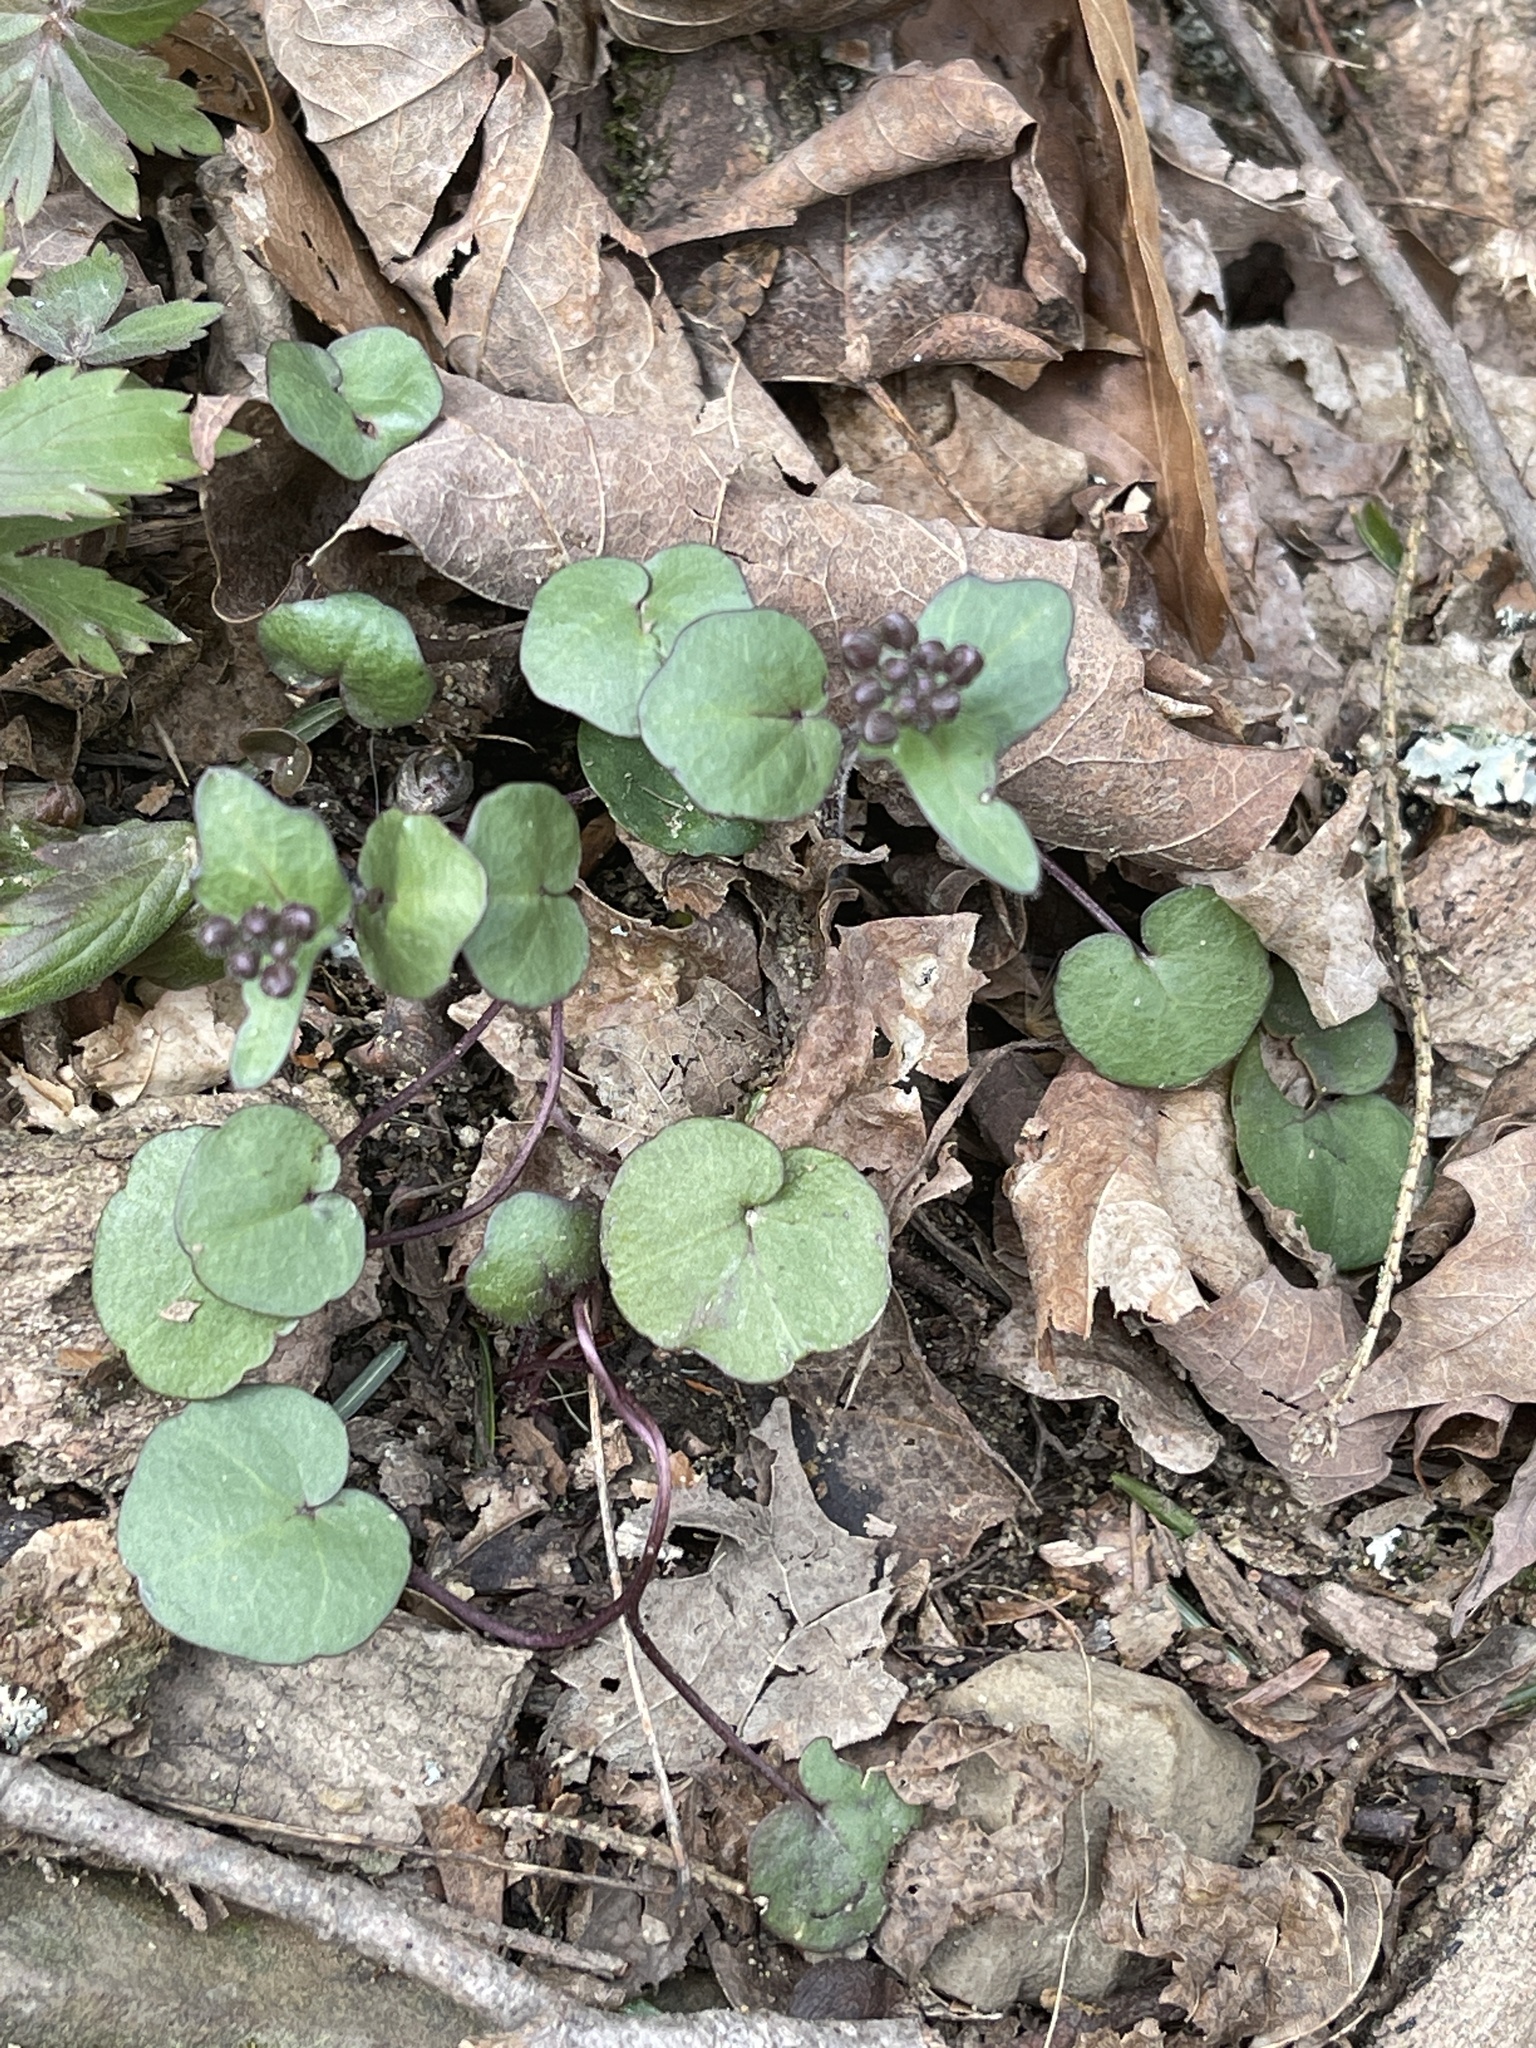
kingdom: Plantae
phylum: Tracheophyta
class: Magnoliopsida
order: Brassicales
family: Brassicaceae
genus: Cardamine
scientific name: Cardamine douglassii
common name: Purple cress
